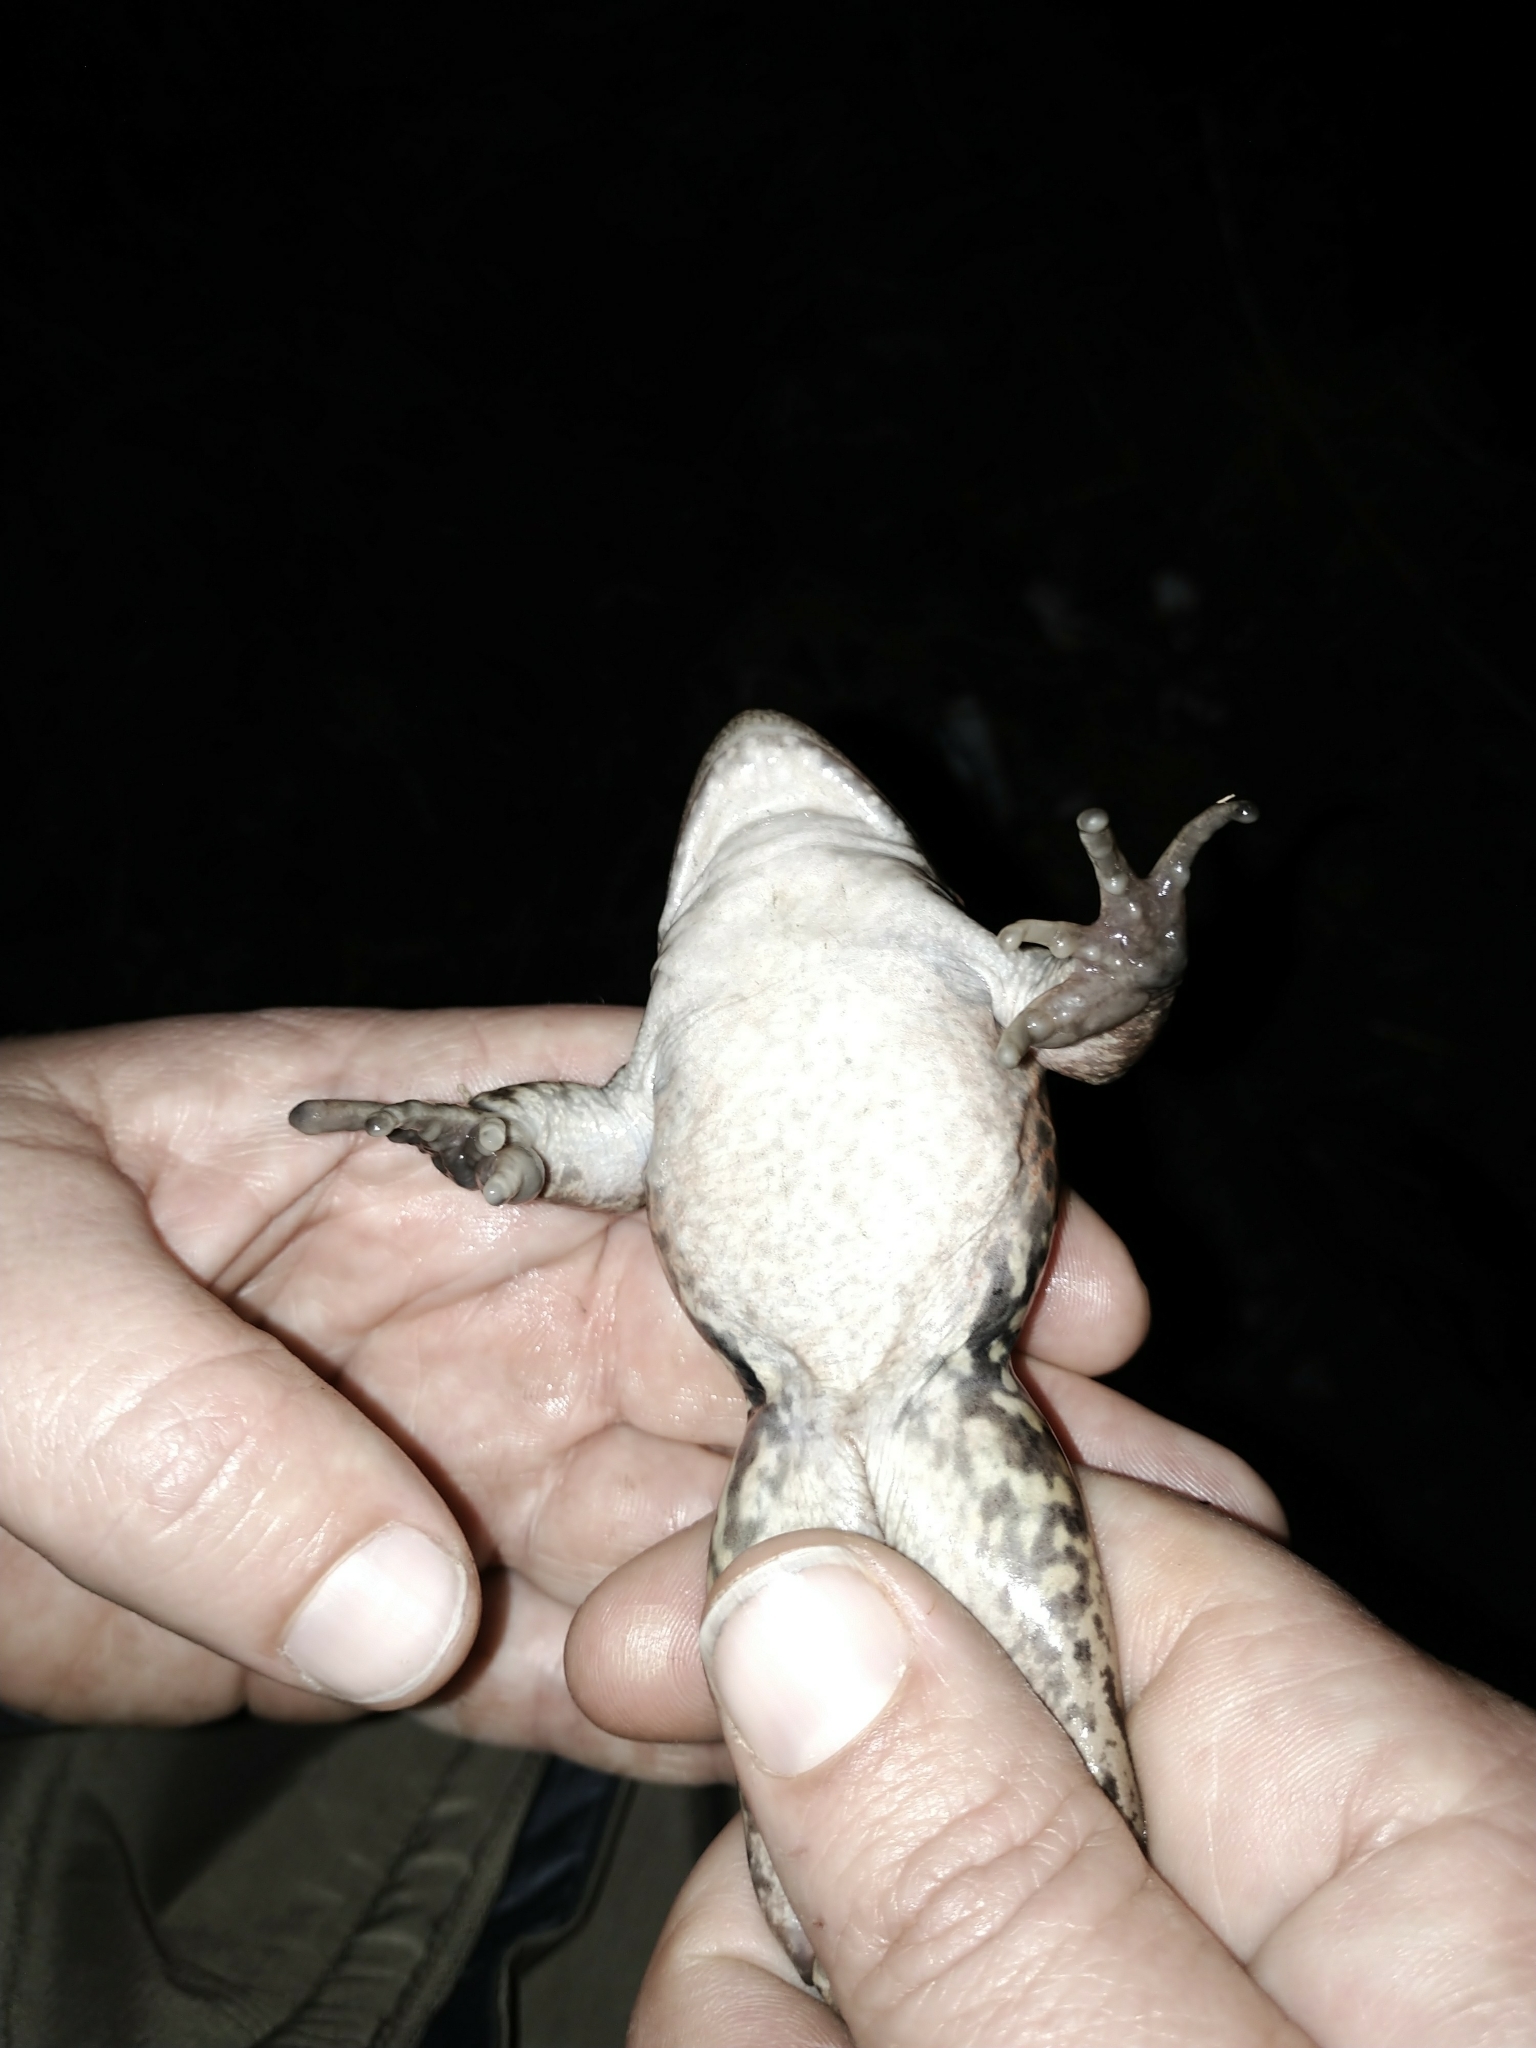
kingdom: Animalia
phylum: Chordata
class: Amphibia
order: Anura
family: Ranidae
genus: Rana
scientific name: Rana draytonii
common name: California red-legged frog
